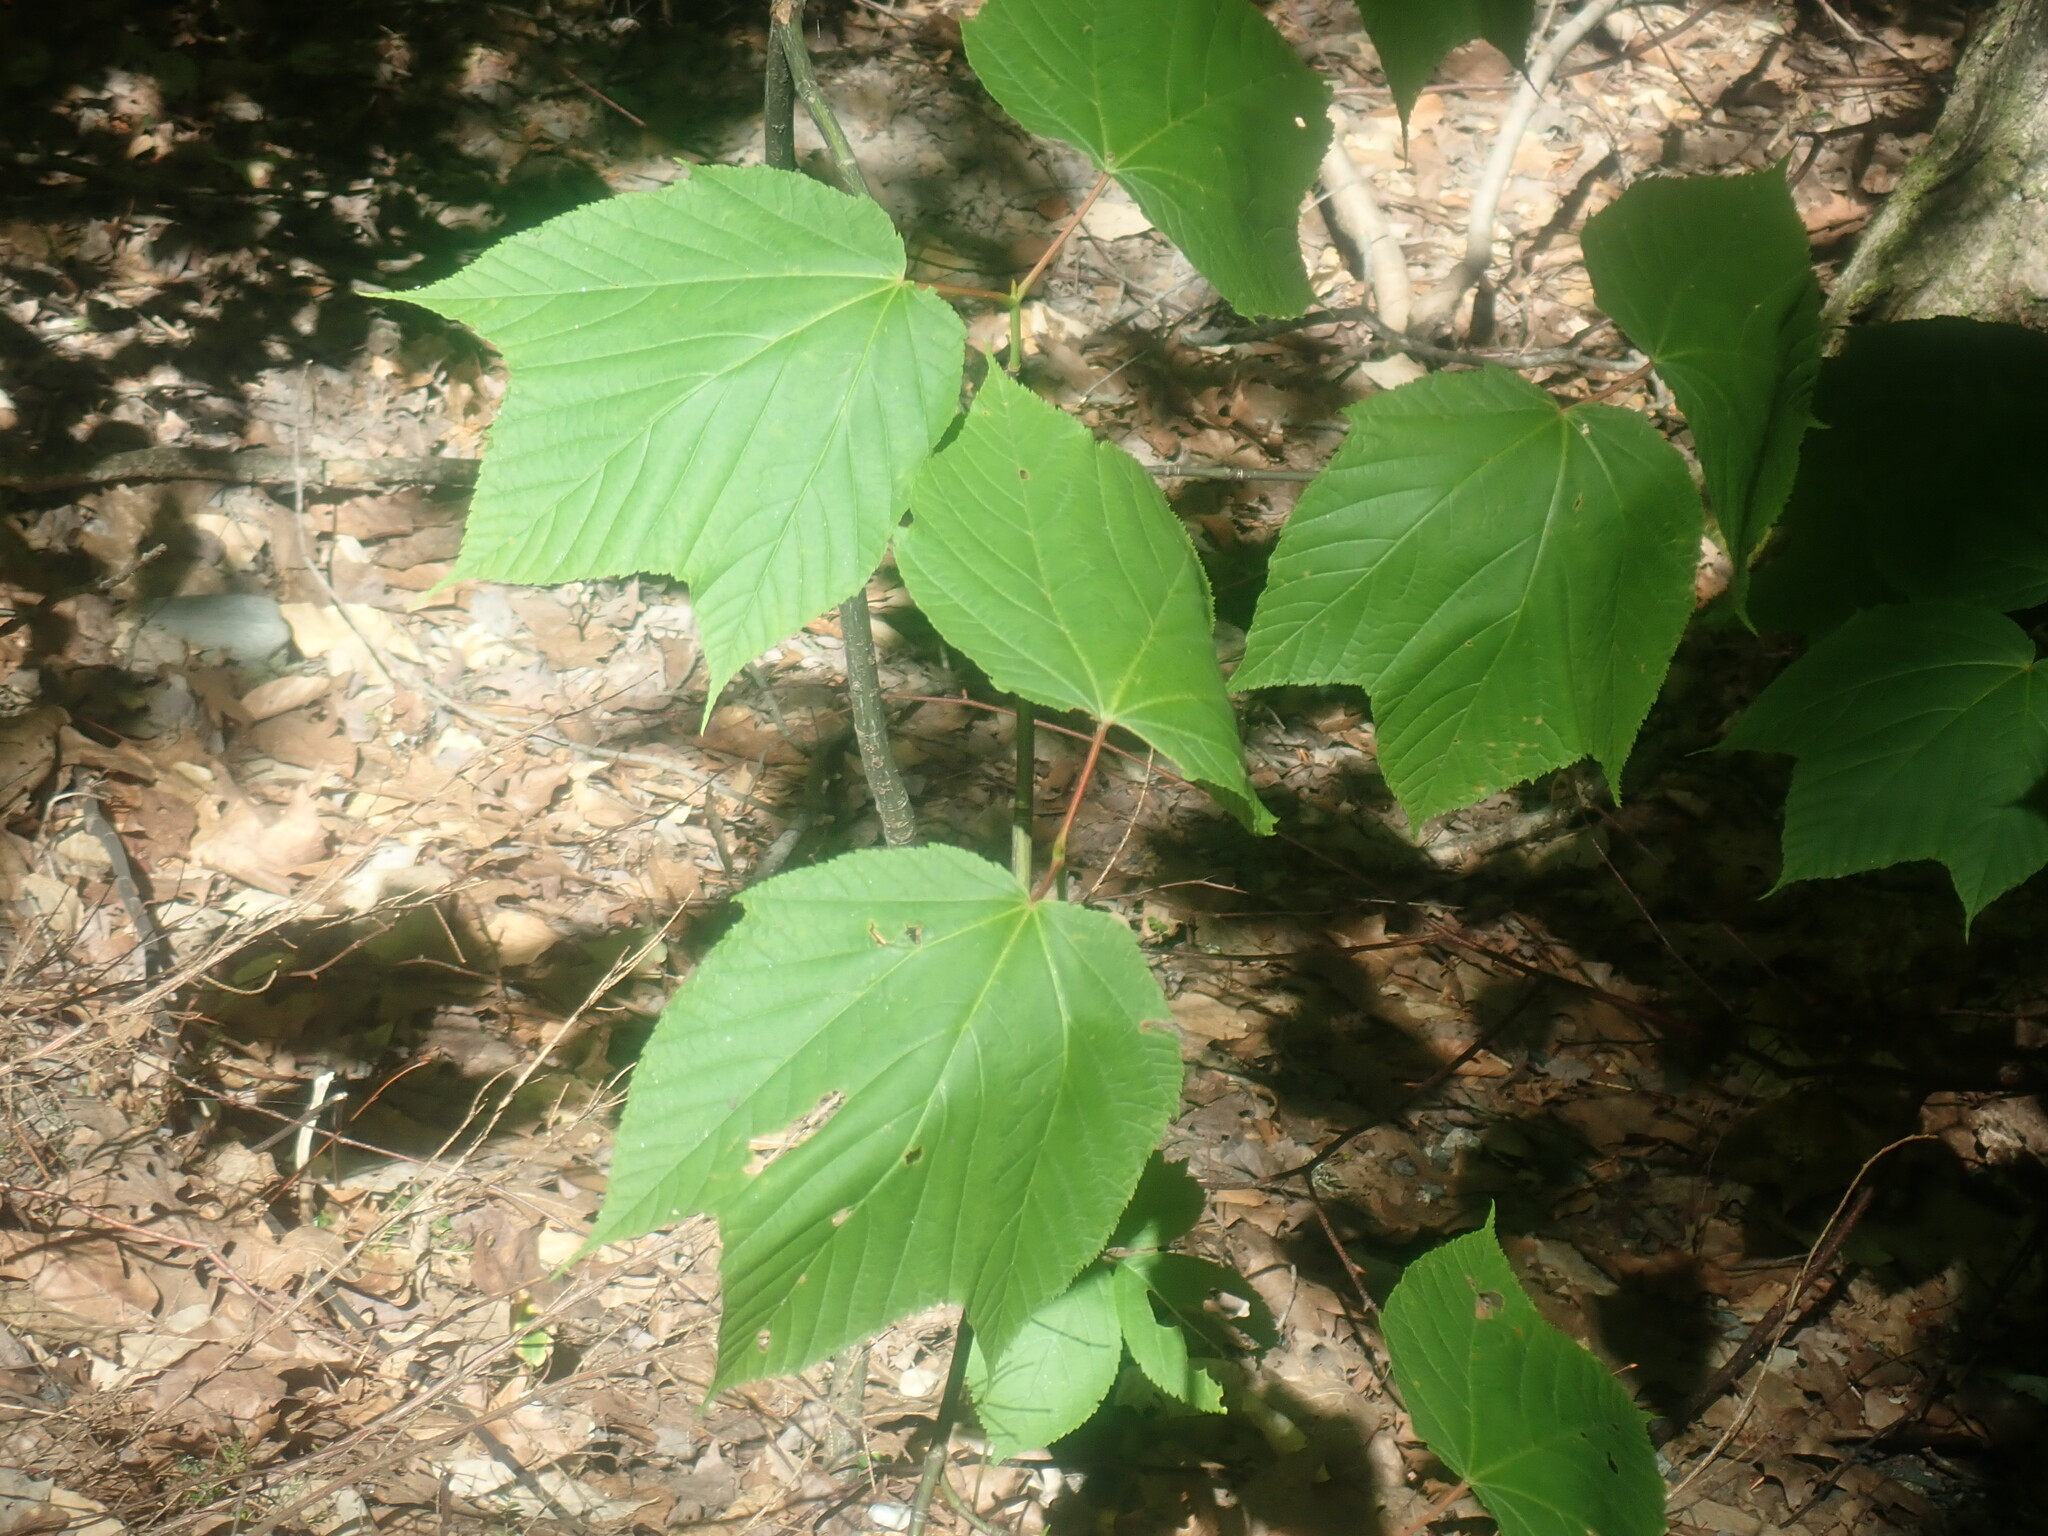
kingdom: Plantae
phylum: Tracheophyta
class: Magnoliopsida
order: Sapindales
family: Sapindaceae
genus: Acer
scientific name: Acer pensylvanicum
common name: Moosewood
